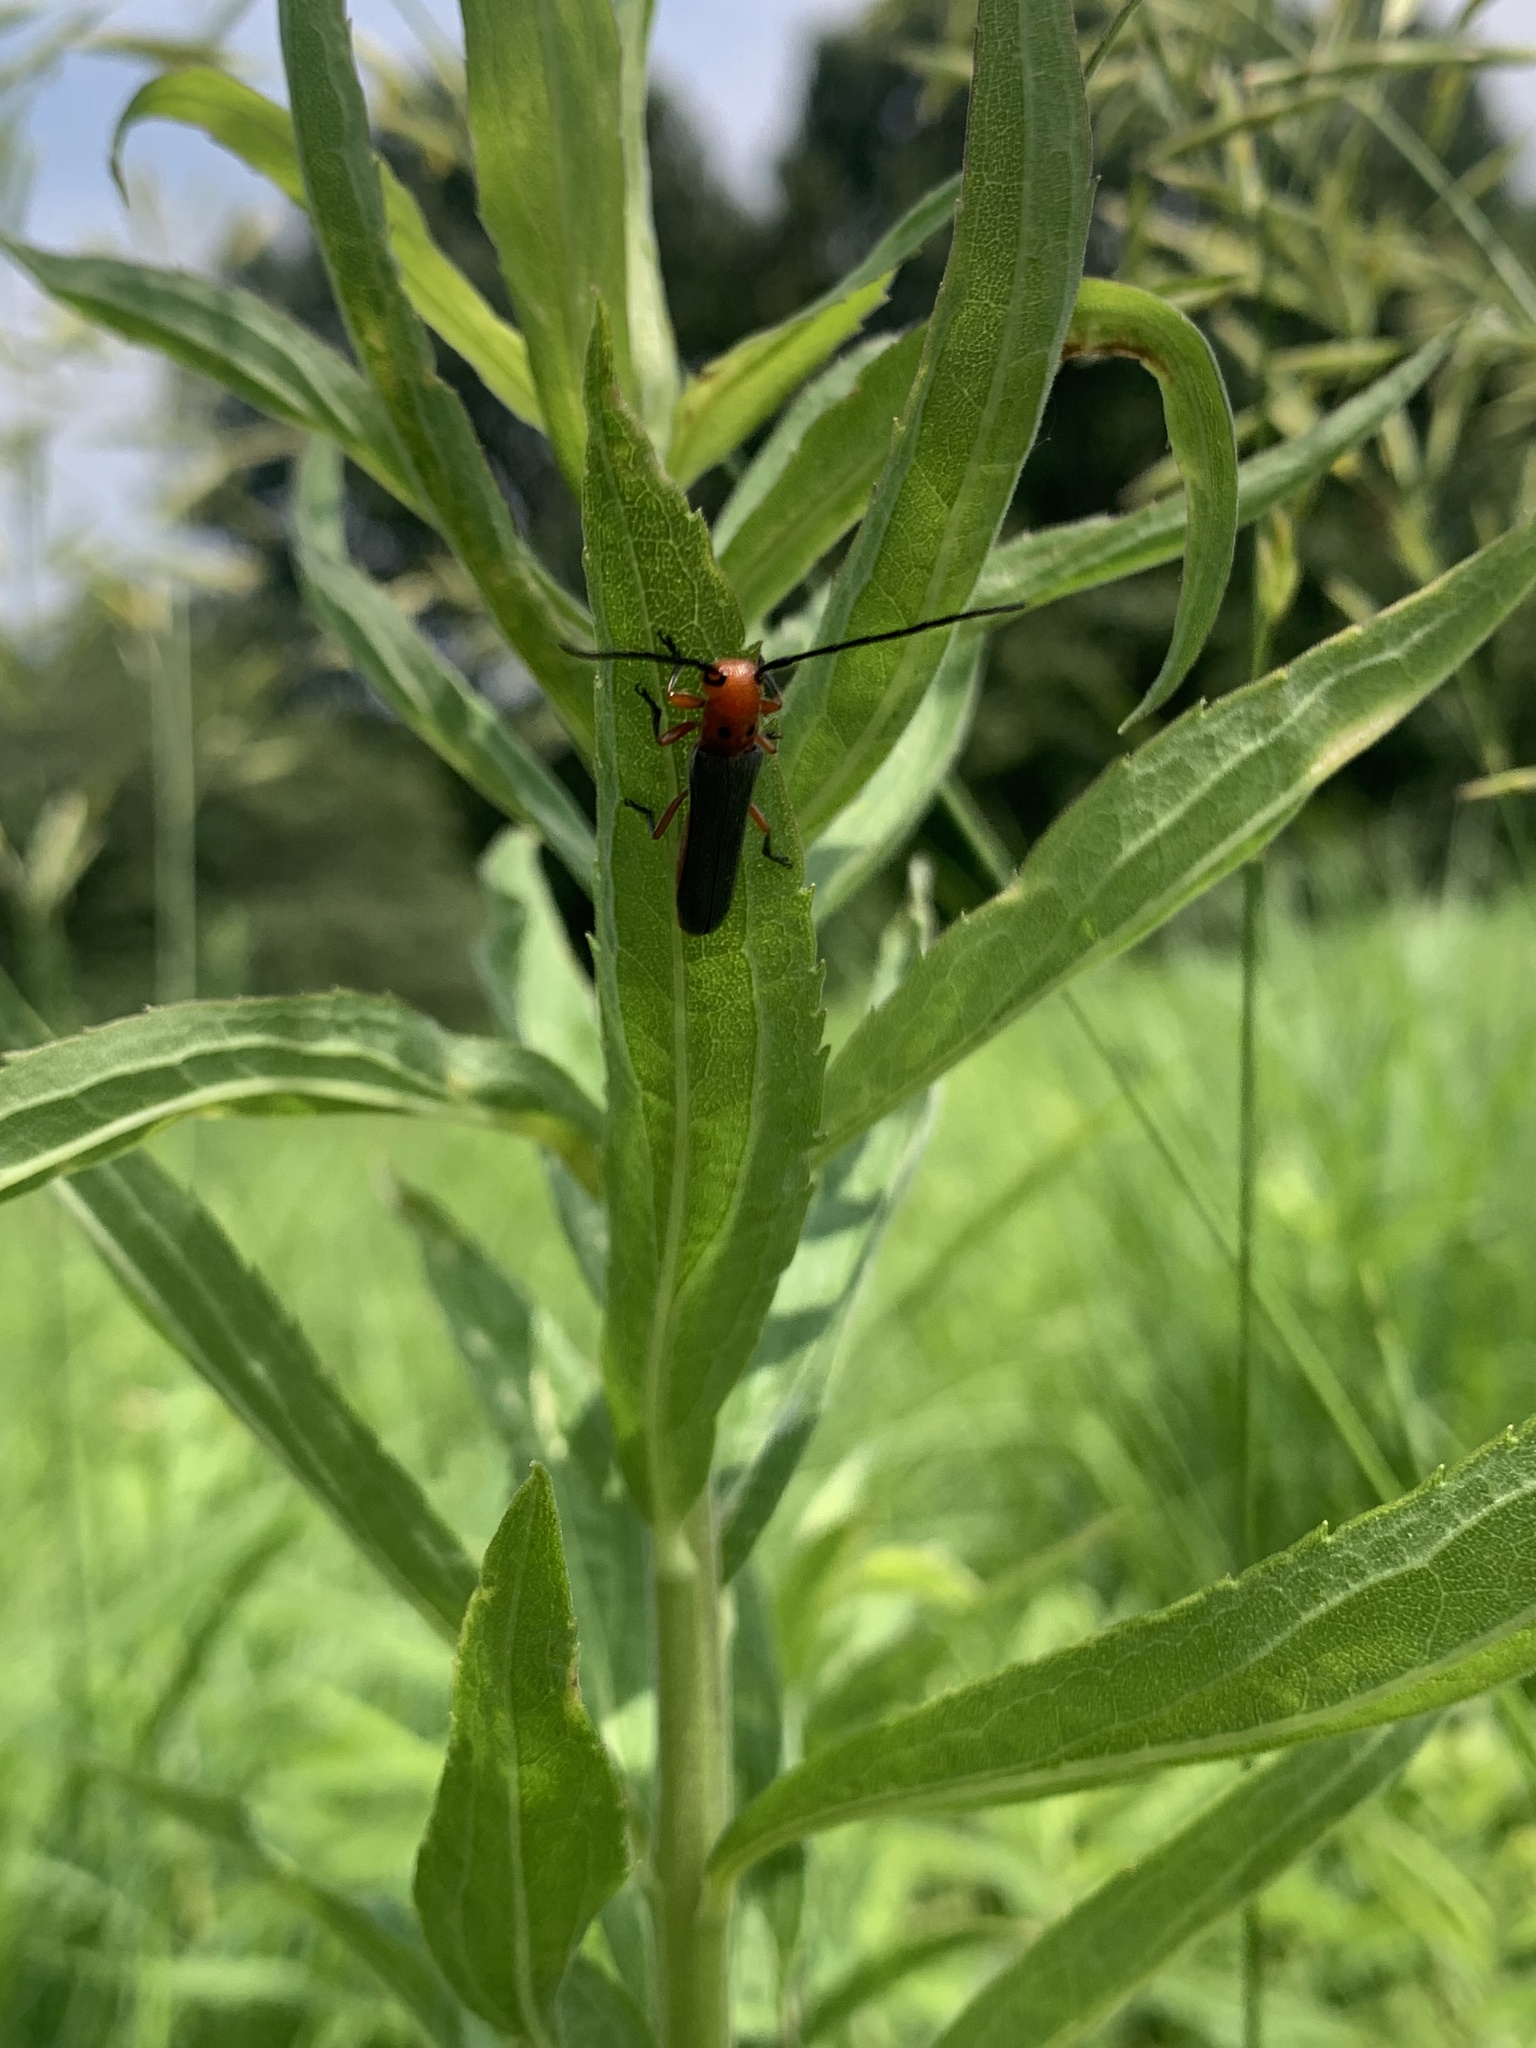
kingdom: Animalia
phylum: Arthropoda
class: Insecta
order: Coleoptera
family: Cerambycidae
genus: Oberea
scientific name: Oberea ocellata
